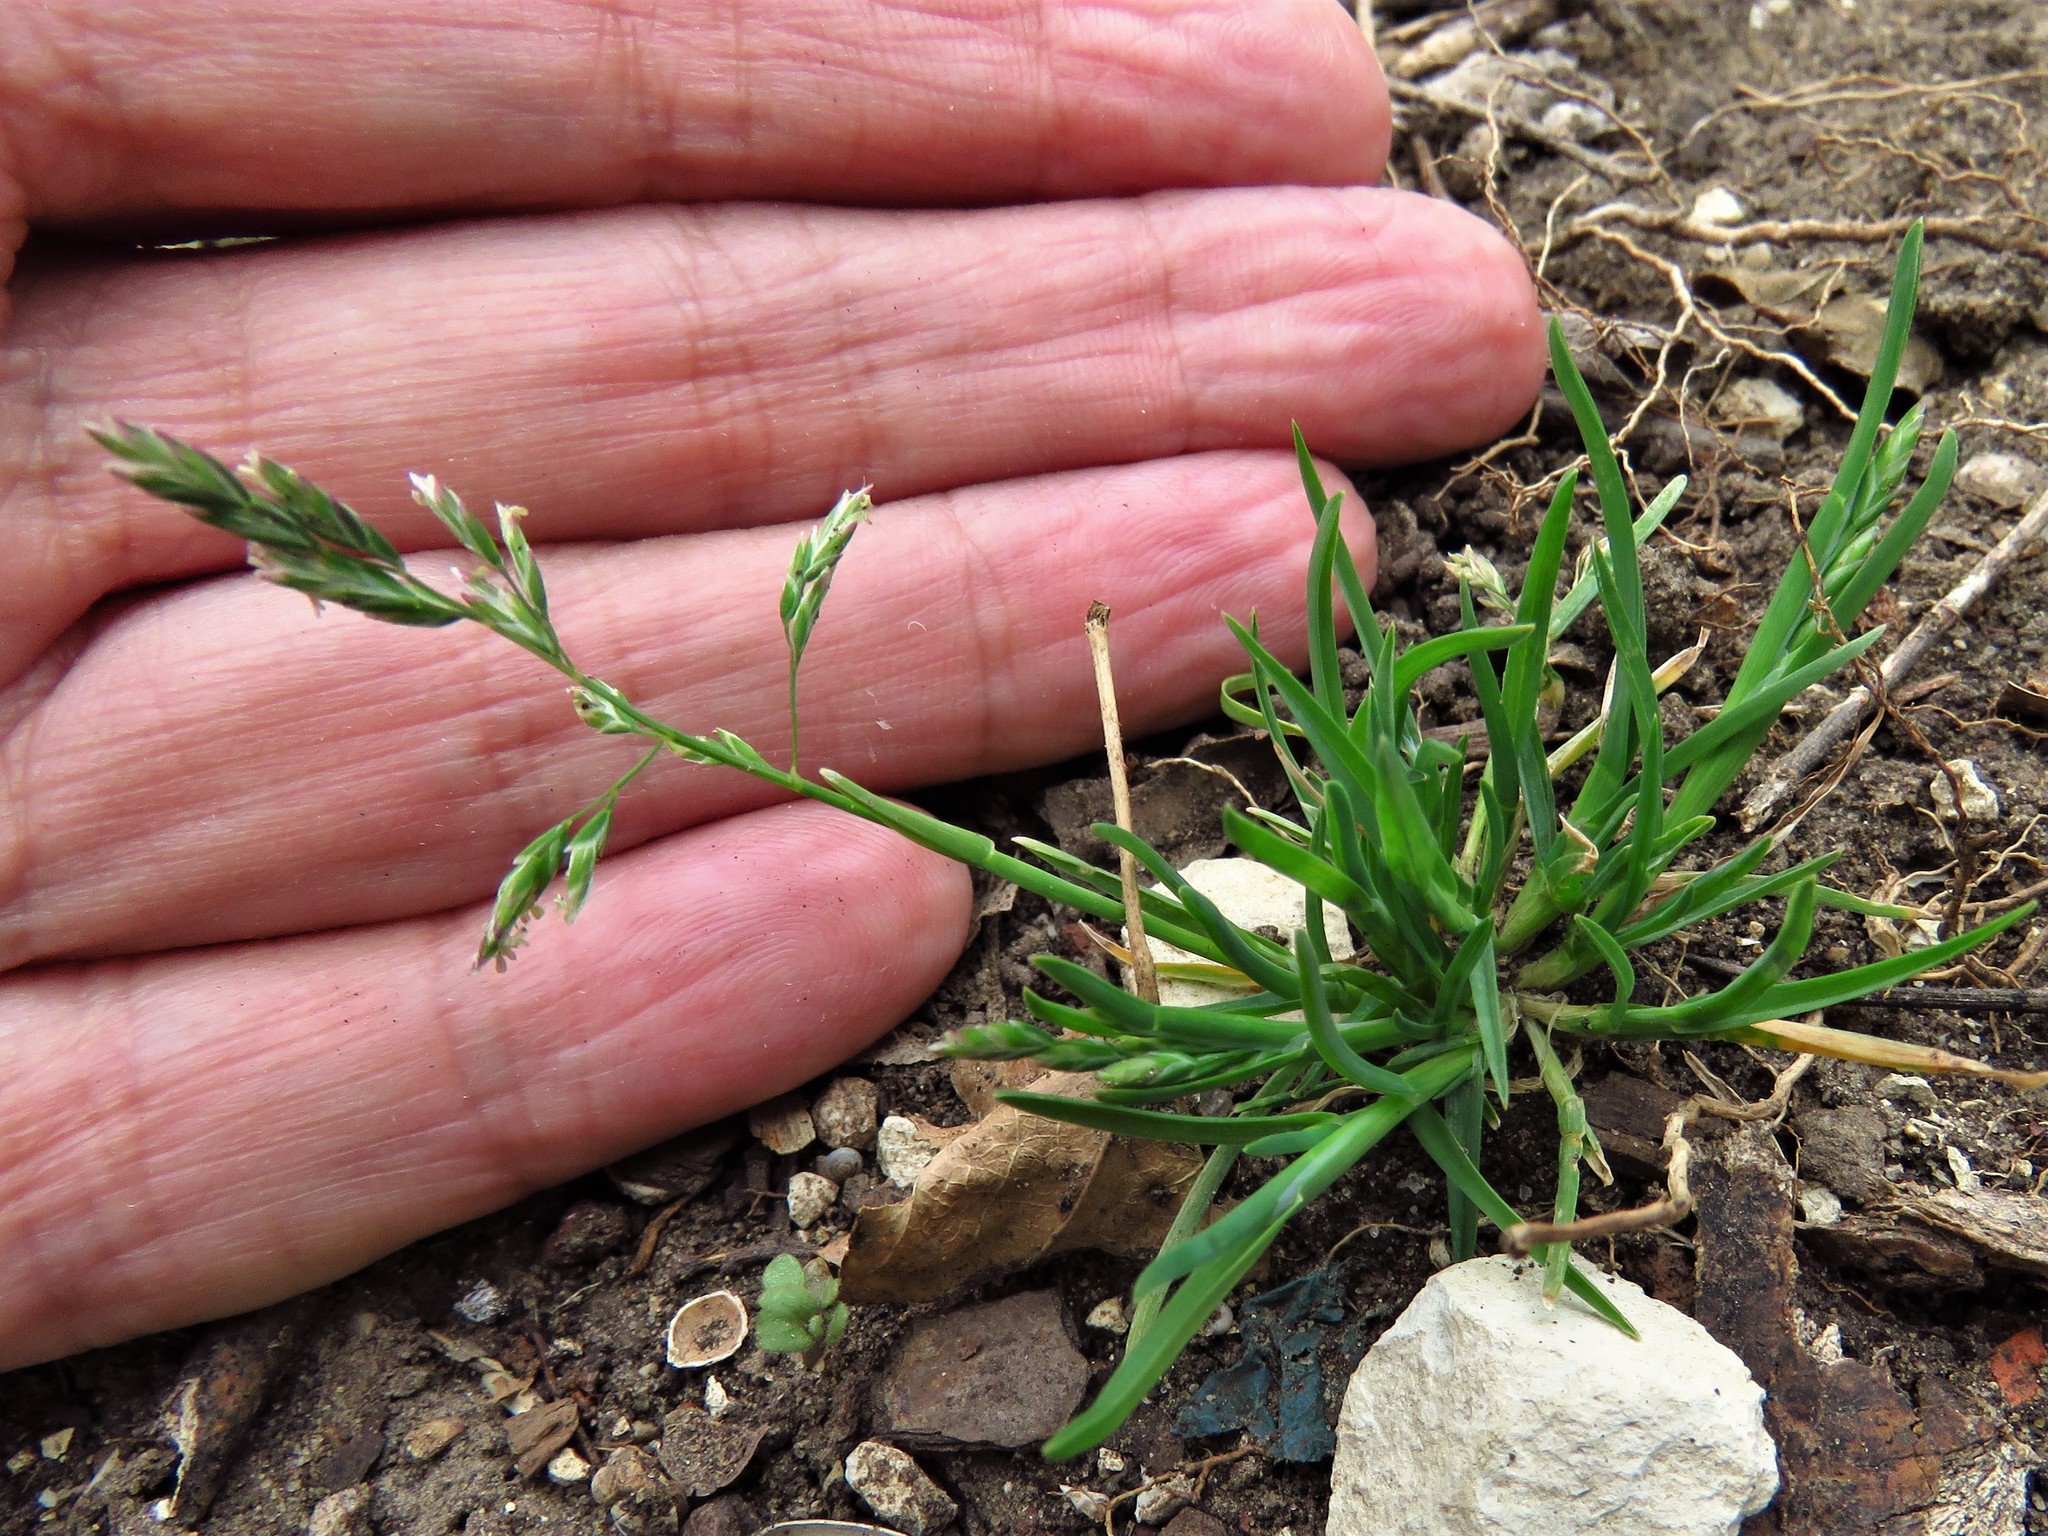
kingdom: Plantae
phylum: Tracheophyta
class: Liliopsida
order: Poales
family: Poaceae
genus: Poa
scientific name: Poa annua
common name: Annual bluegrass
